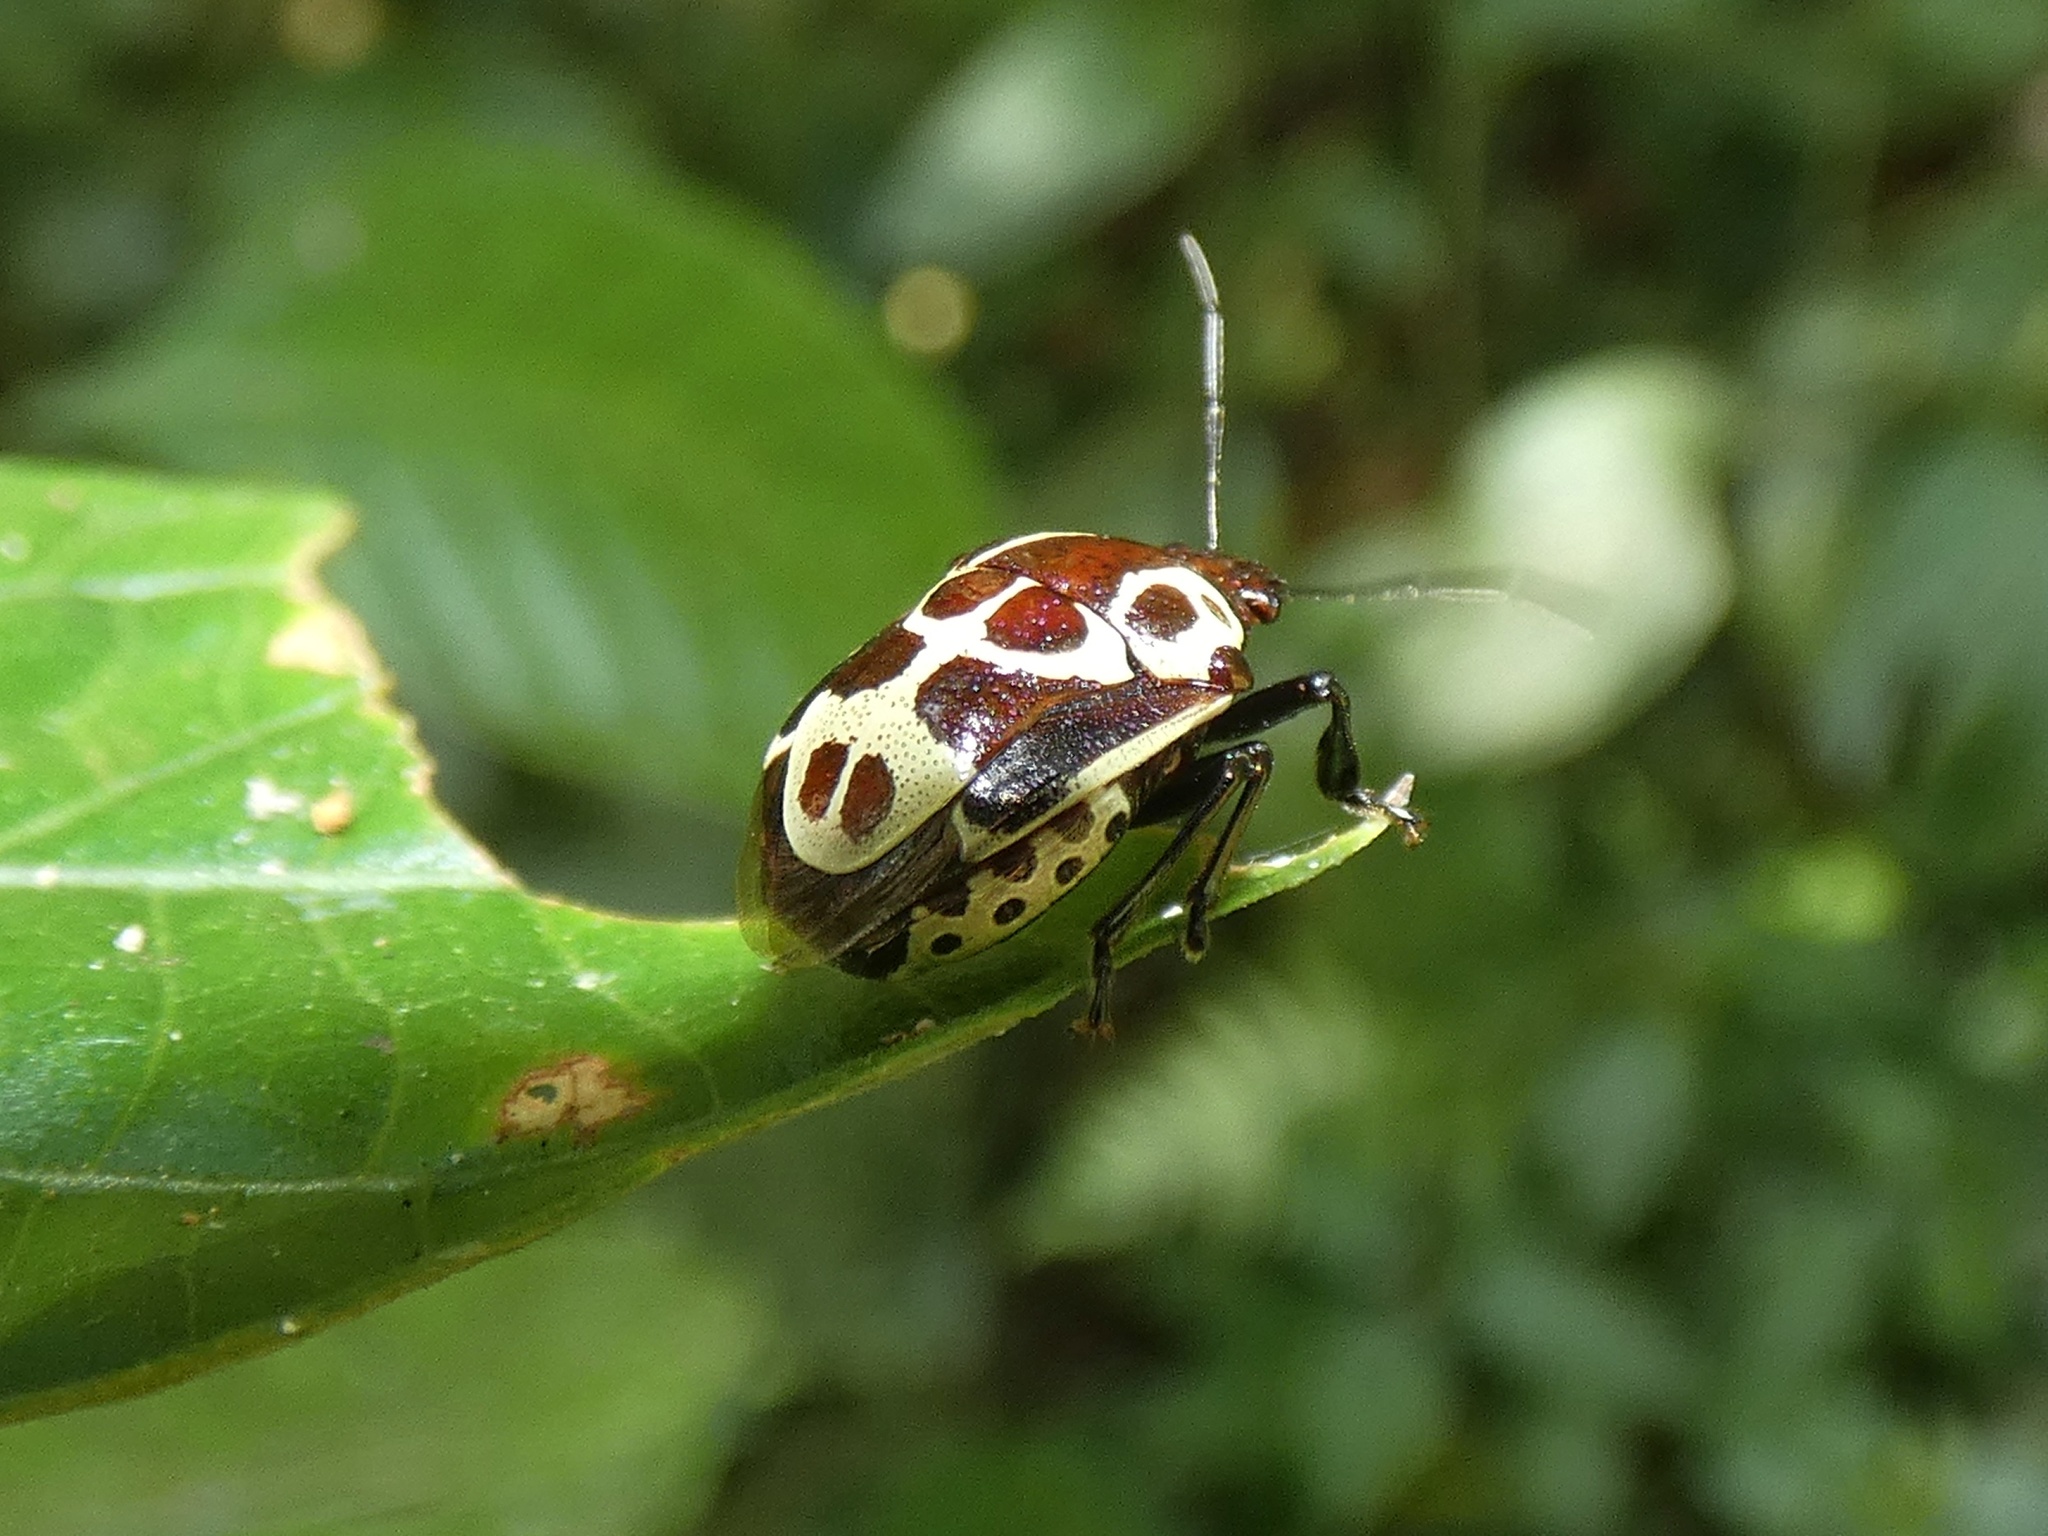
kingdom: Animalia
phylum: Arthropoda
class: Insecta
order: Hemiptera
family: Pentatomidae
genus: Stiretrus
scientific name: Stiretrus anchorago
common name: Anchor stink bug
